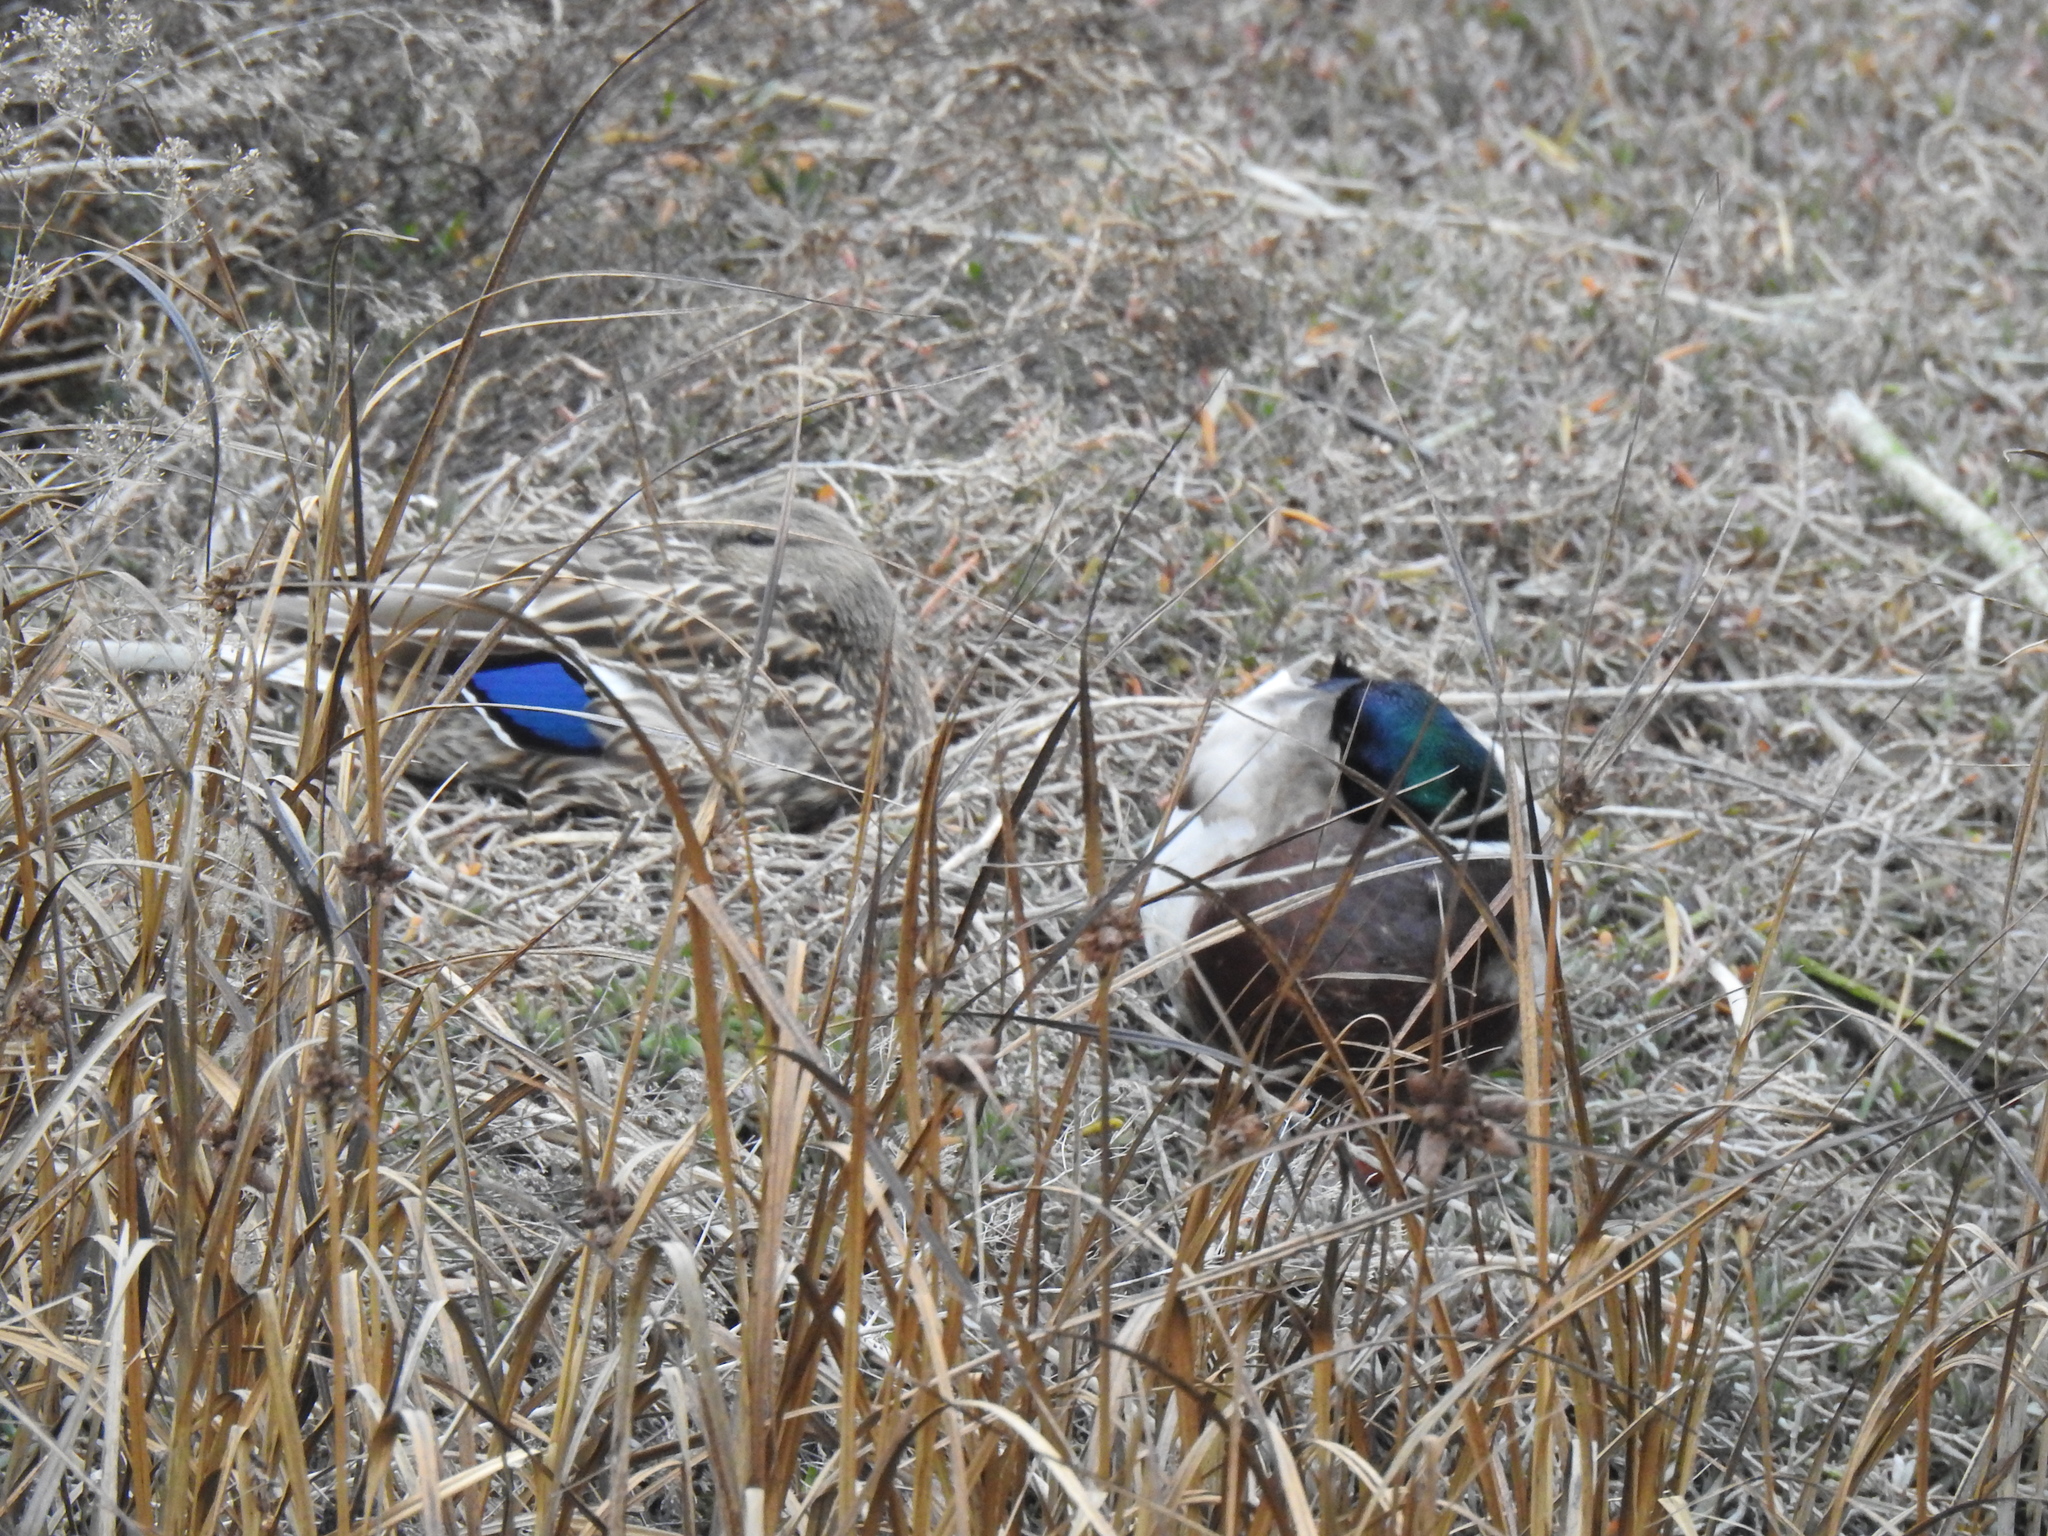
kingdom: Animalia
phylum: Chordata
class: Aves
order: Anseriformes
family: Anatidae
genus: Anas
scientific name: Anas platyrhynchos
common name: Mallard
